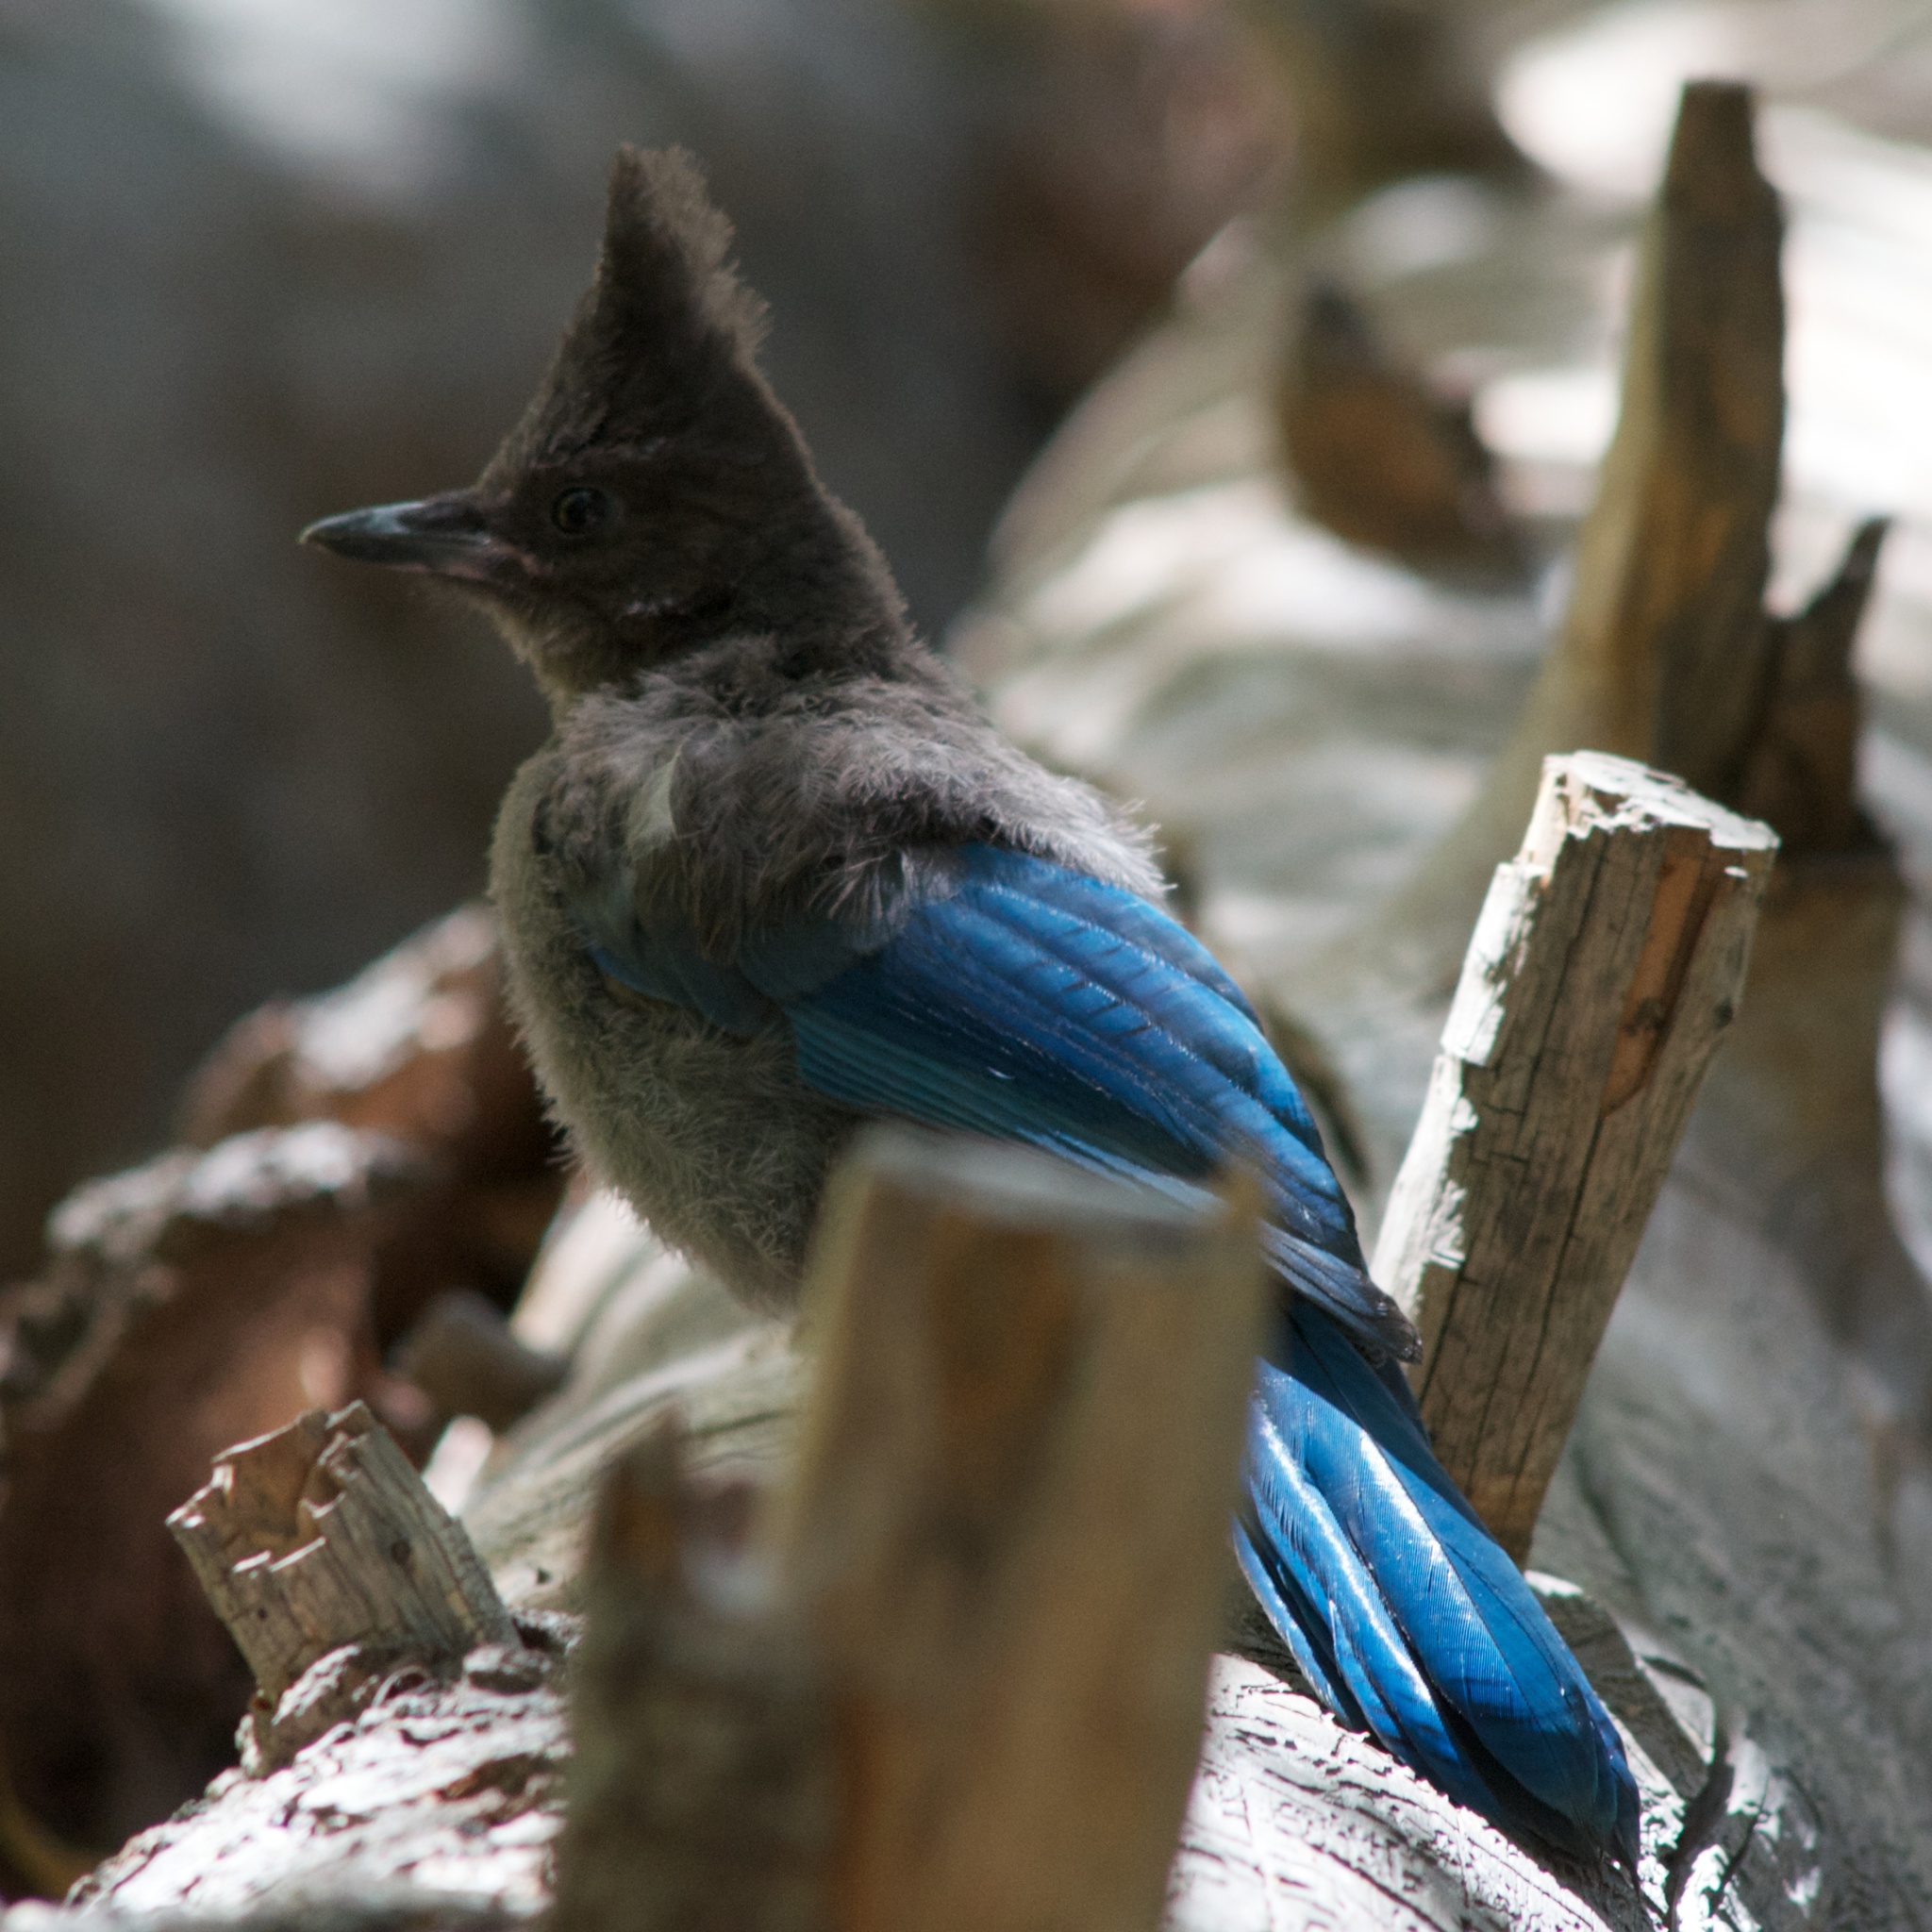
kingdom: Animalia
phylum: Chordata
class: Aves
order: Passeriformes
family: Corvidae
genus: Cyanocitta
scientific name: Cyanocitta stelleri
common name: Steller's jay
